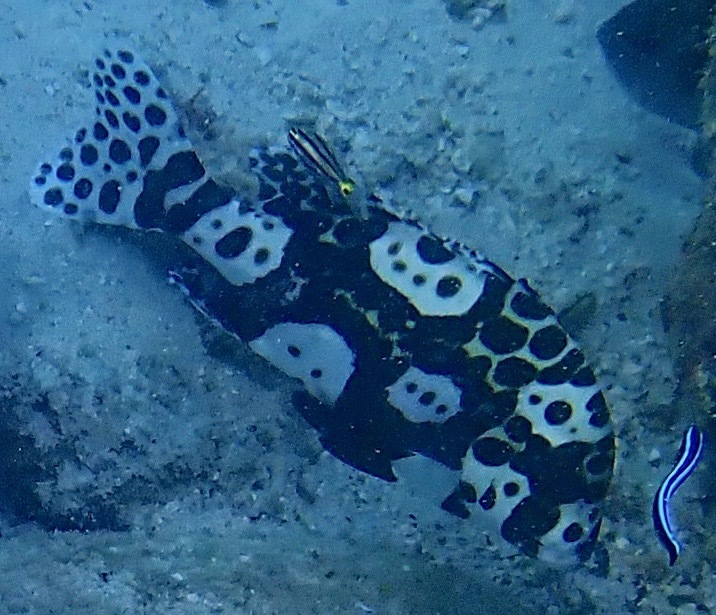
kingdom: Animalia
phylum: Chordata
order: Perciformes
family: Haemulidae
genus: Plectorhinchus
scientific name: Plectorhinchus chaetodonoides
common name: Harlequin sweetlips
